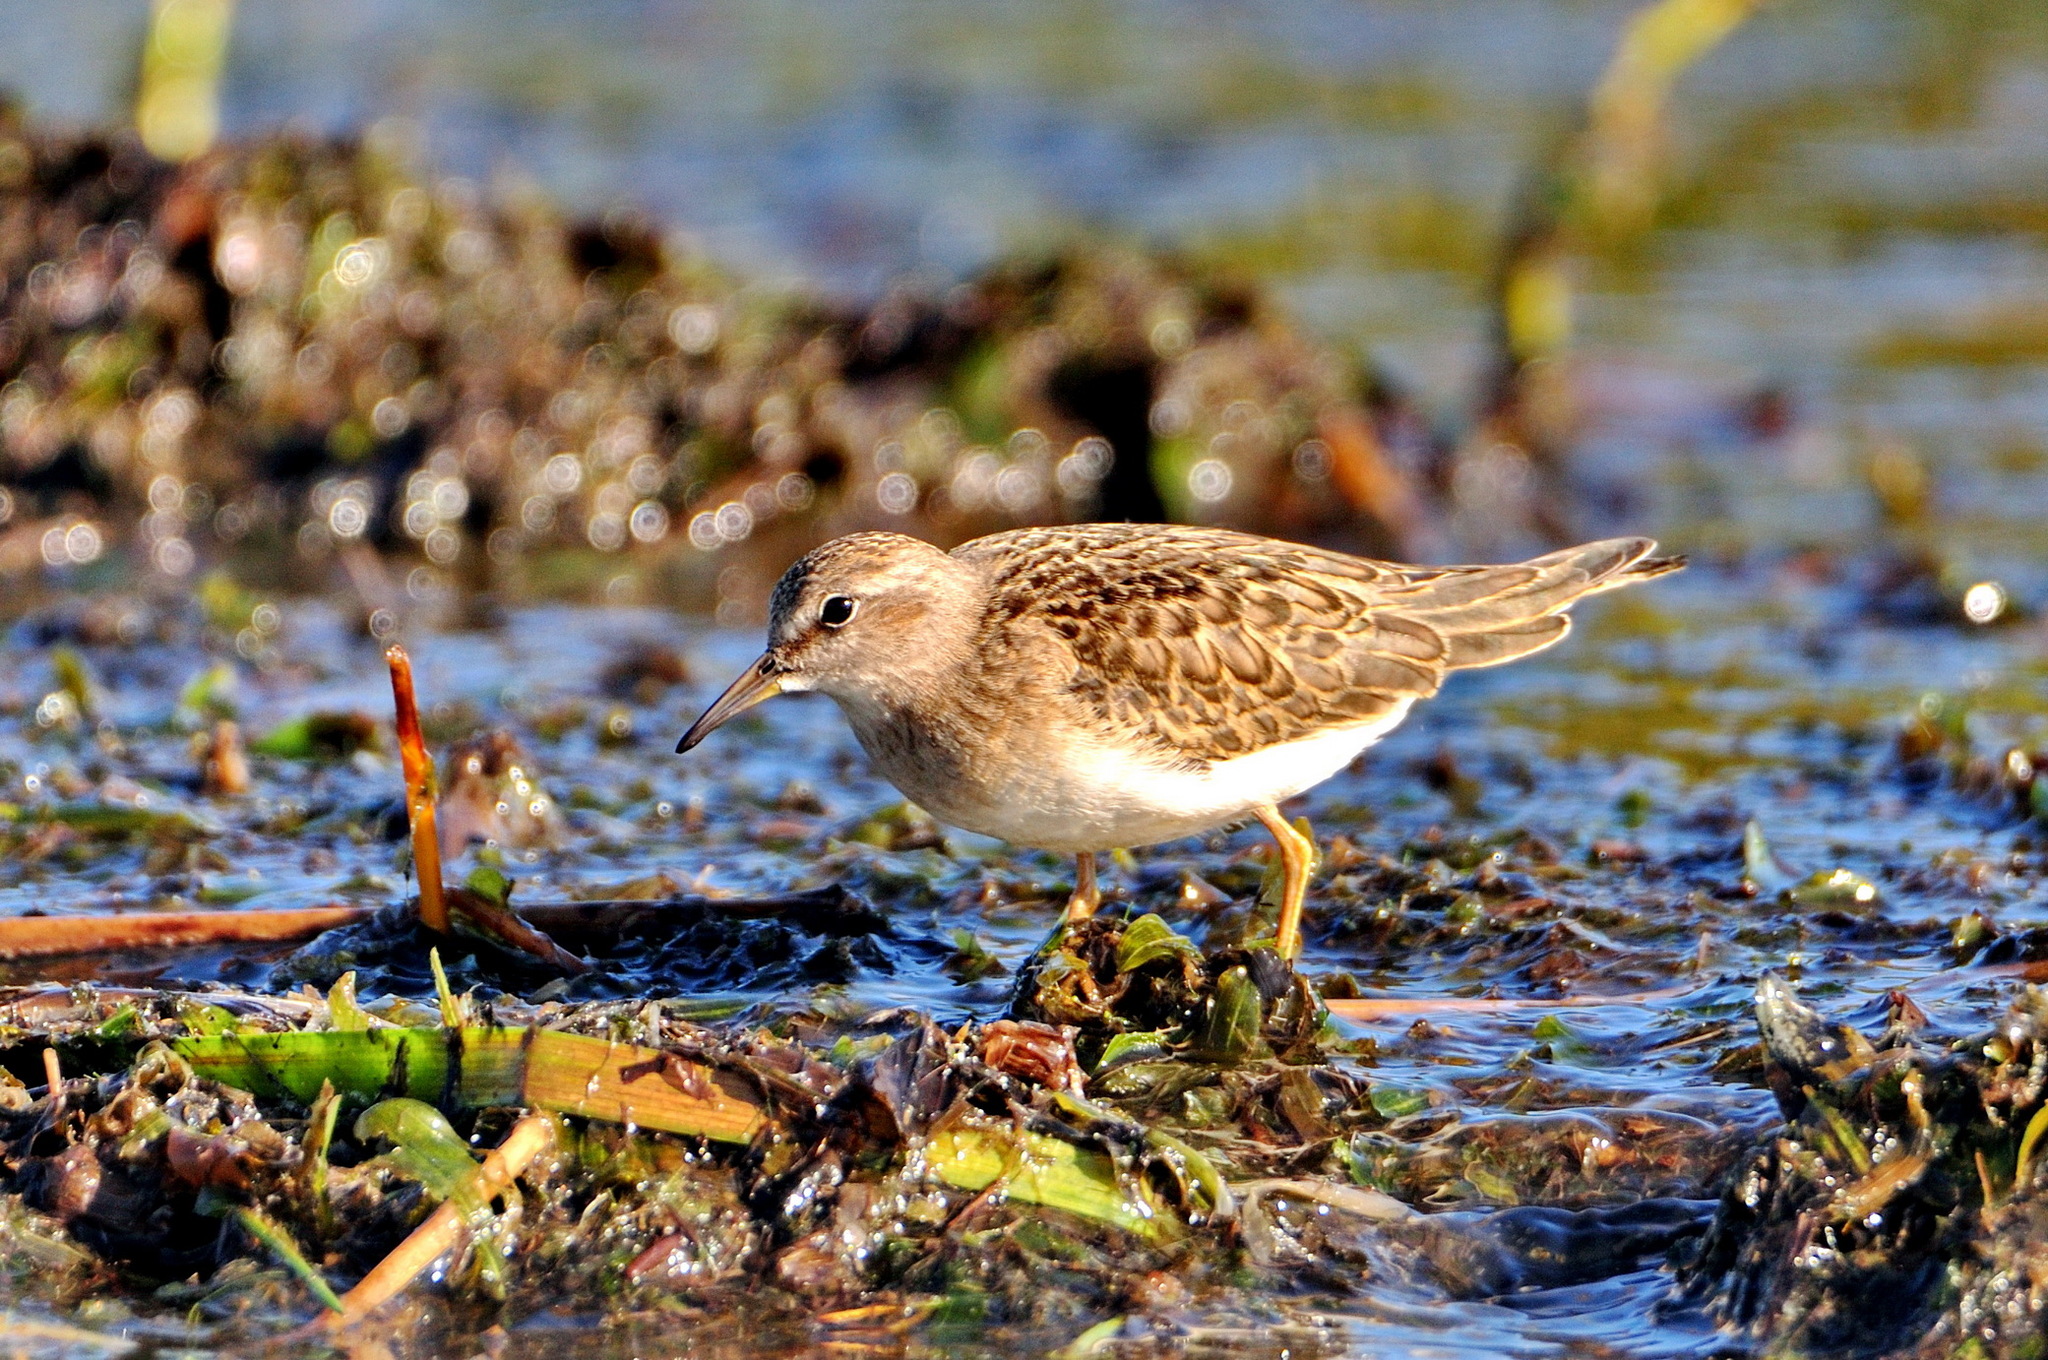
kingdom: Animalia
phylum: Chordata
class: Aves
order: Charadriiformes
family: Scolopacidae
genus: Calidris
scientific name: Calidris temminckii
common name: Temminck's stint
